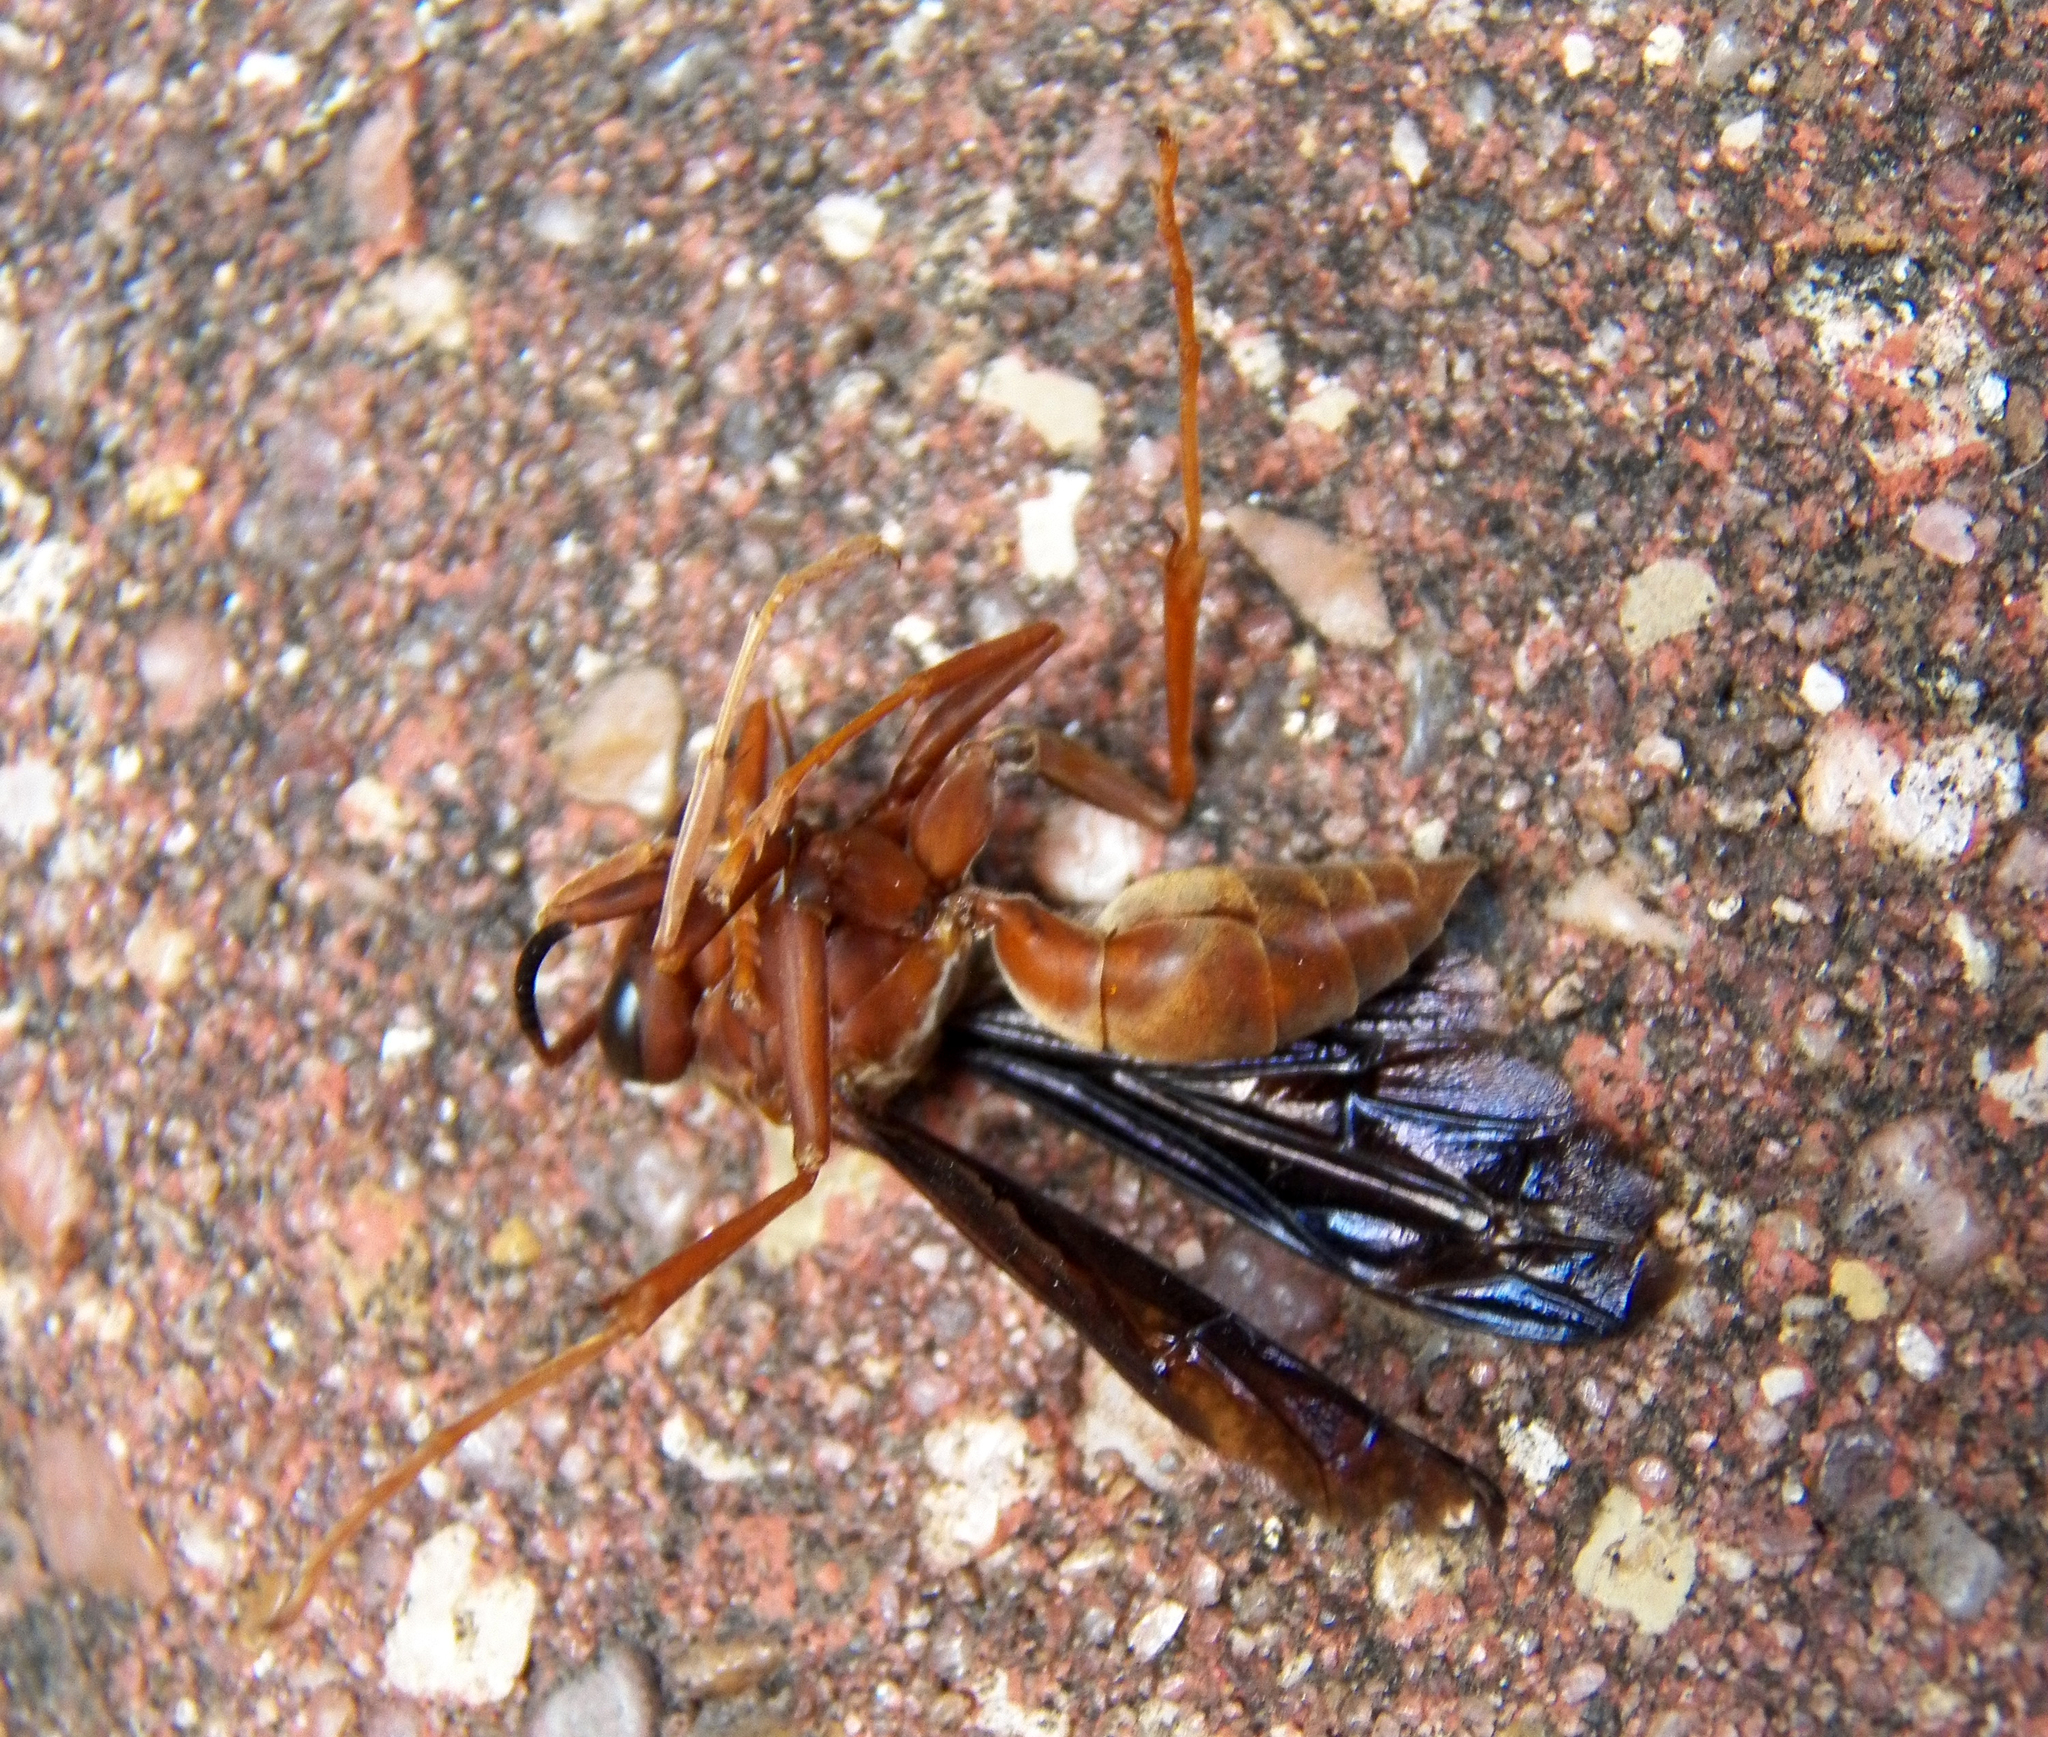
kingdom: Animalia
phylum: Arthropoda
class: Insecta
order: Hymenoptera
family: Vespidae
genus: Fuscopolistes
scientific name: Fuscopolistes
